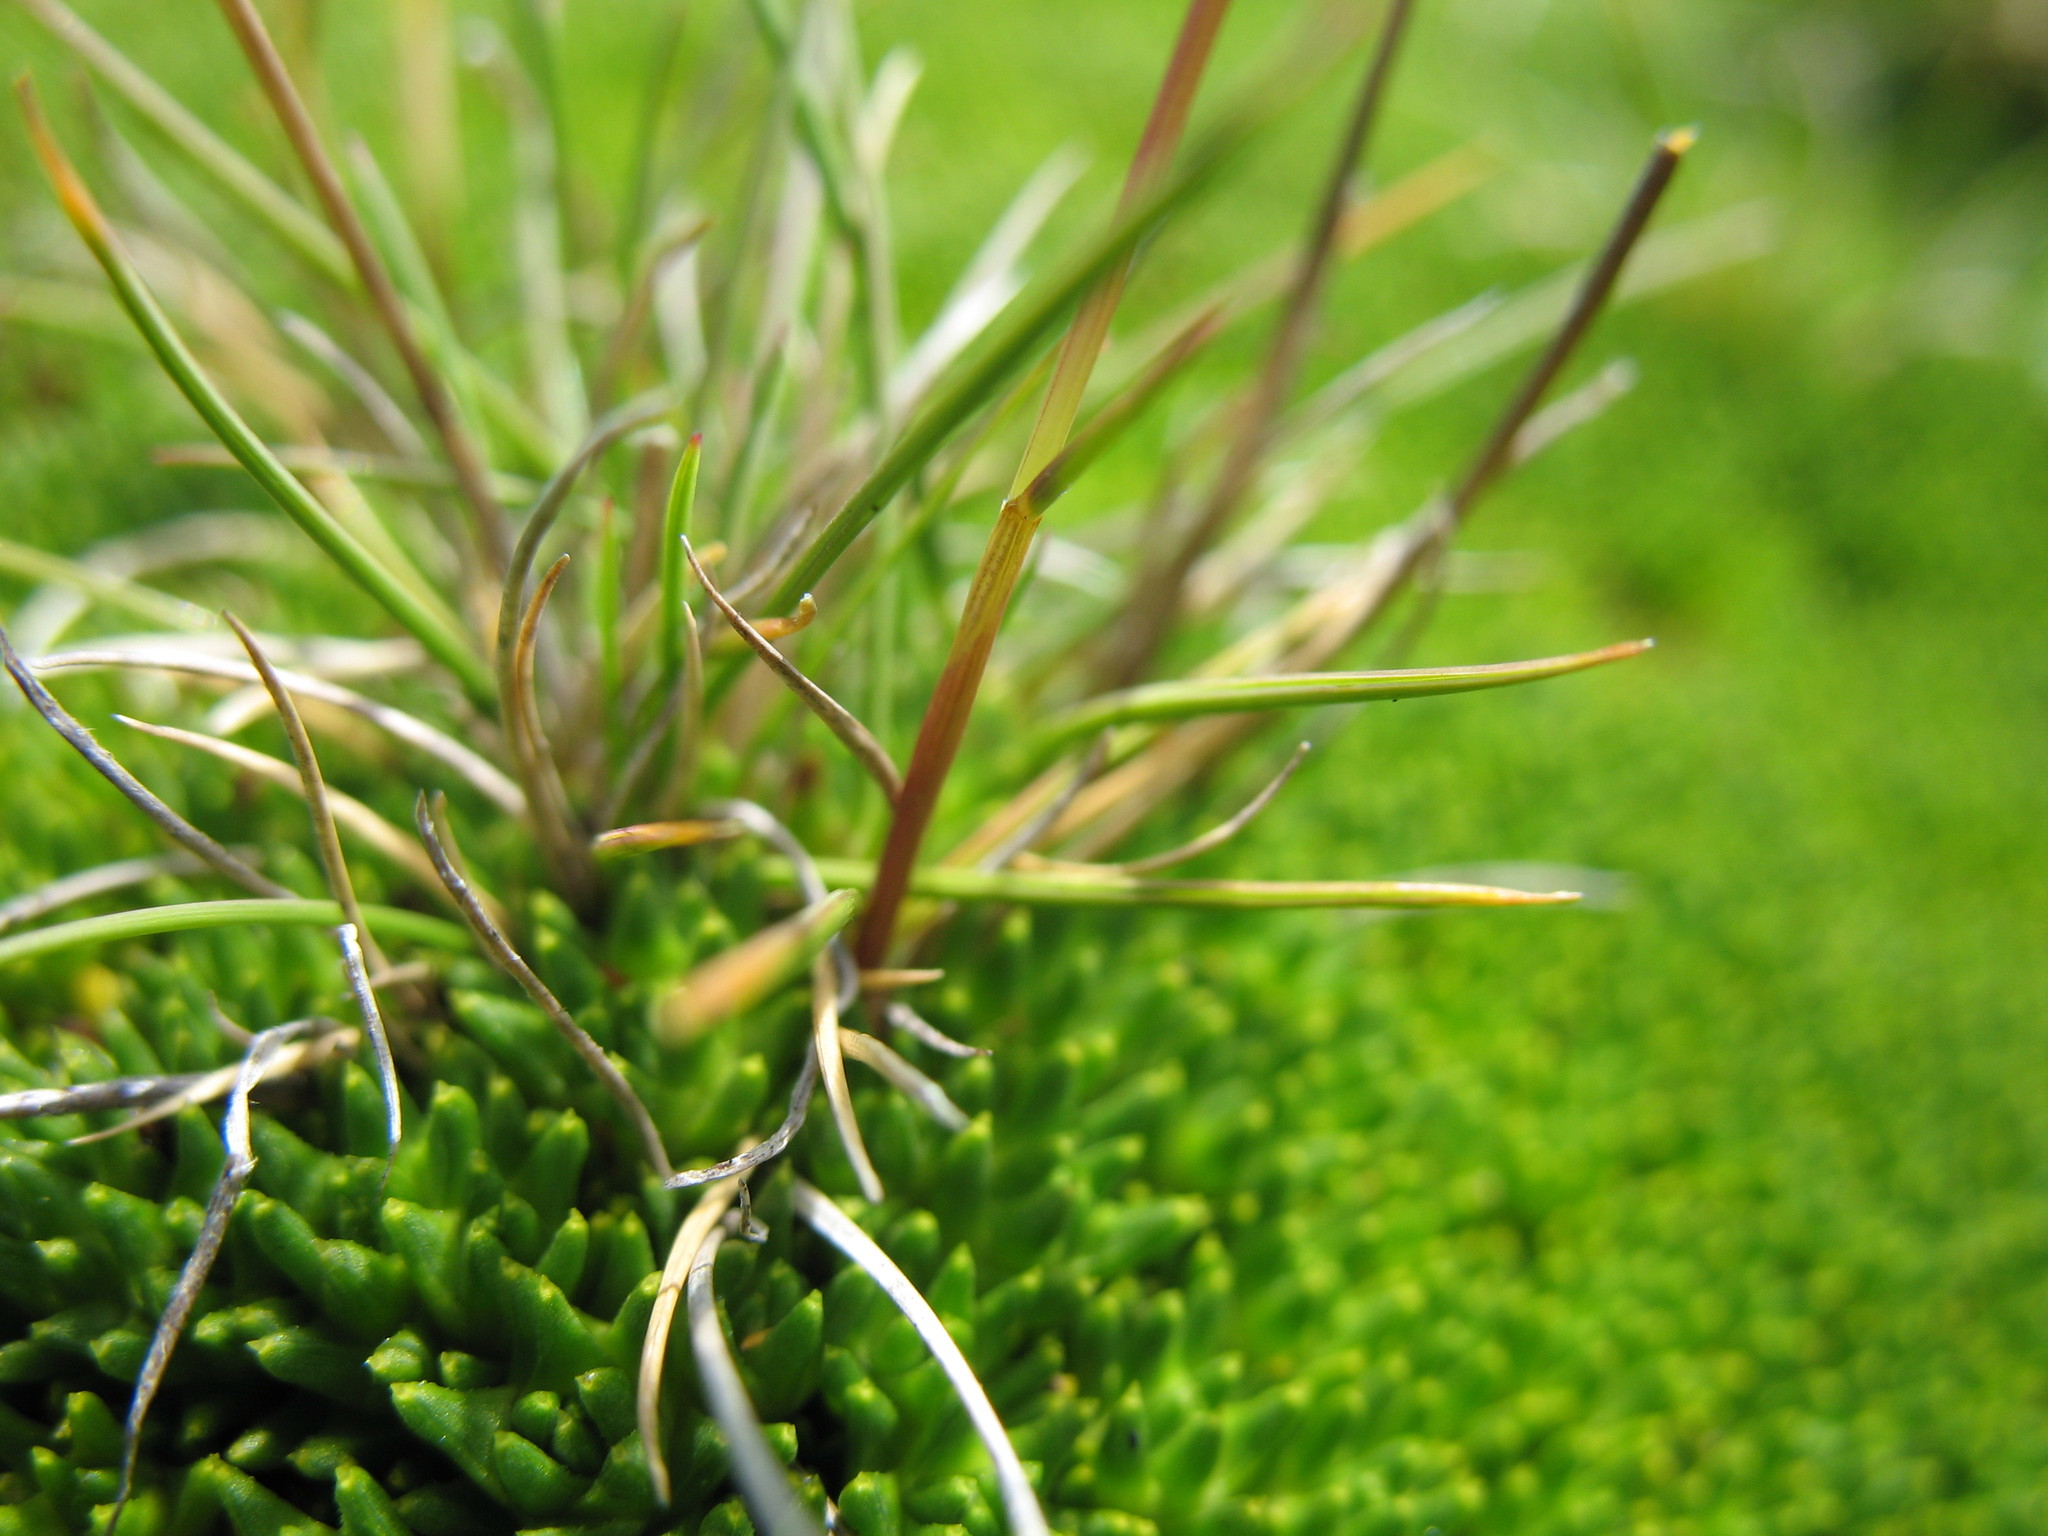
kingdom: Plantae
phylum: Tracheophyta
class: Liliopsida
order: Poales
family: Poaceae
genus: Rytidosperma
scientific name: Rytidosperma nivicola
